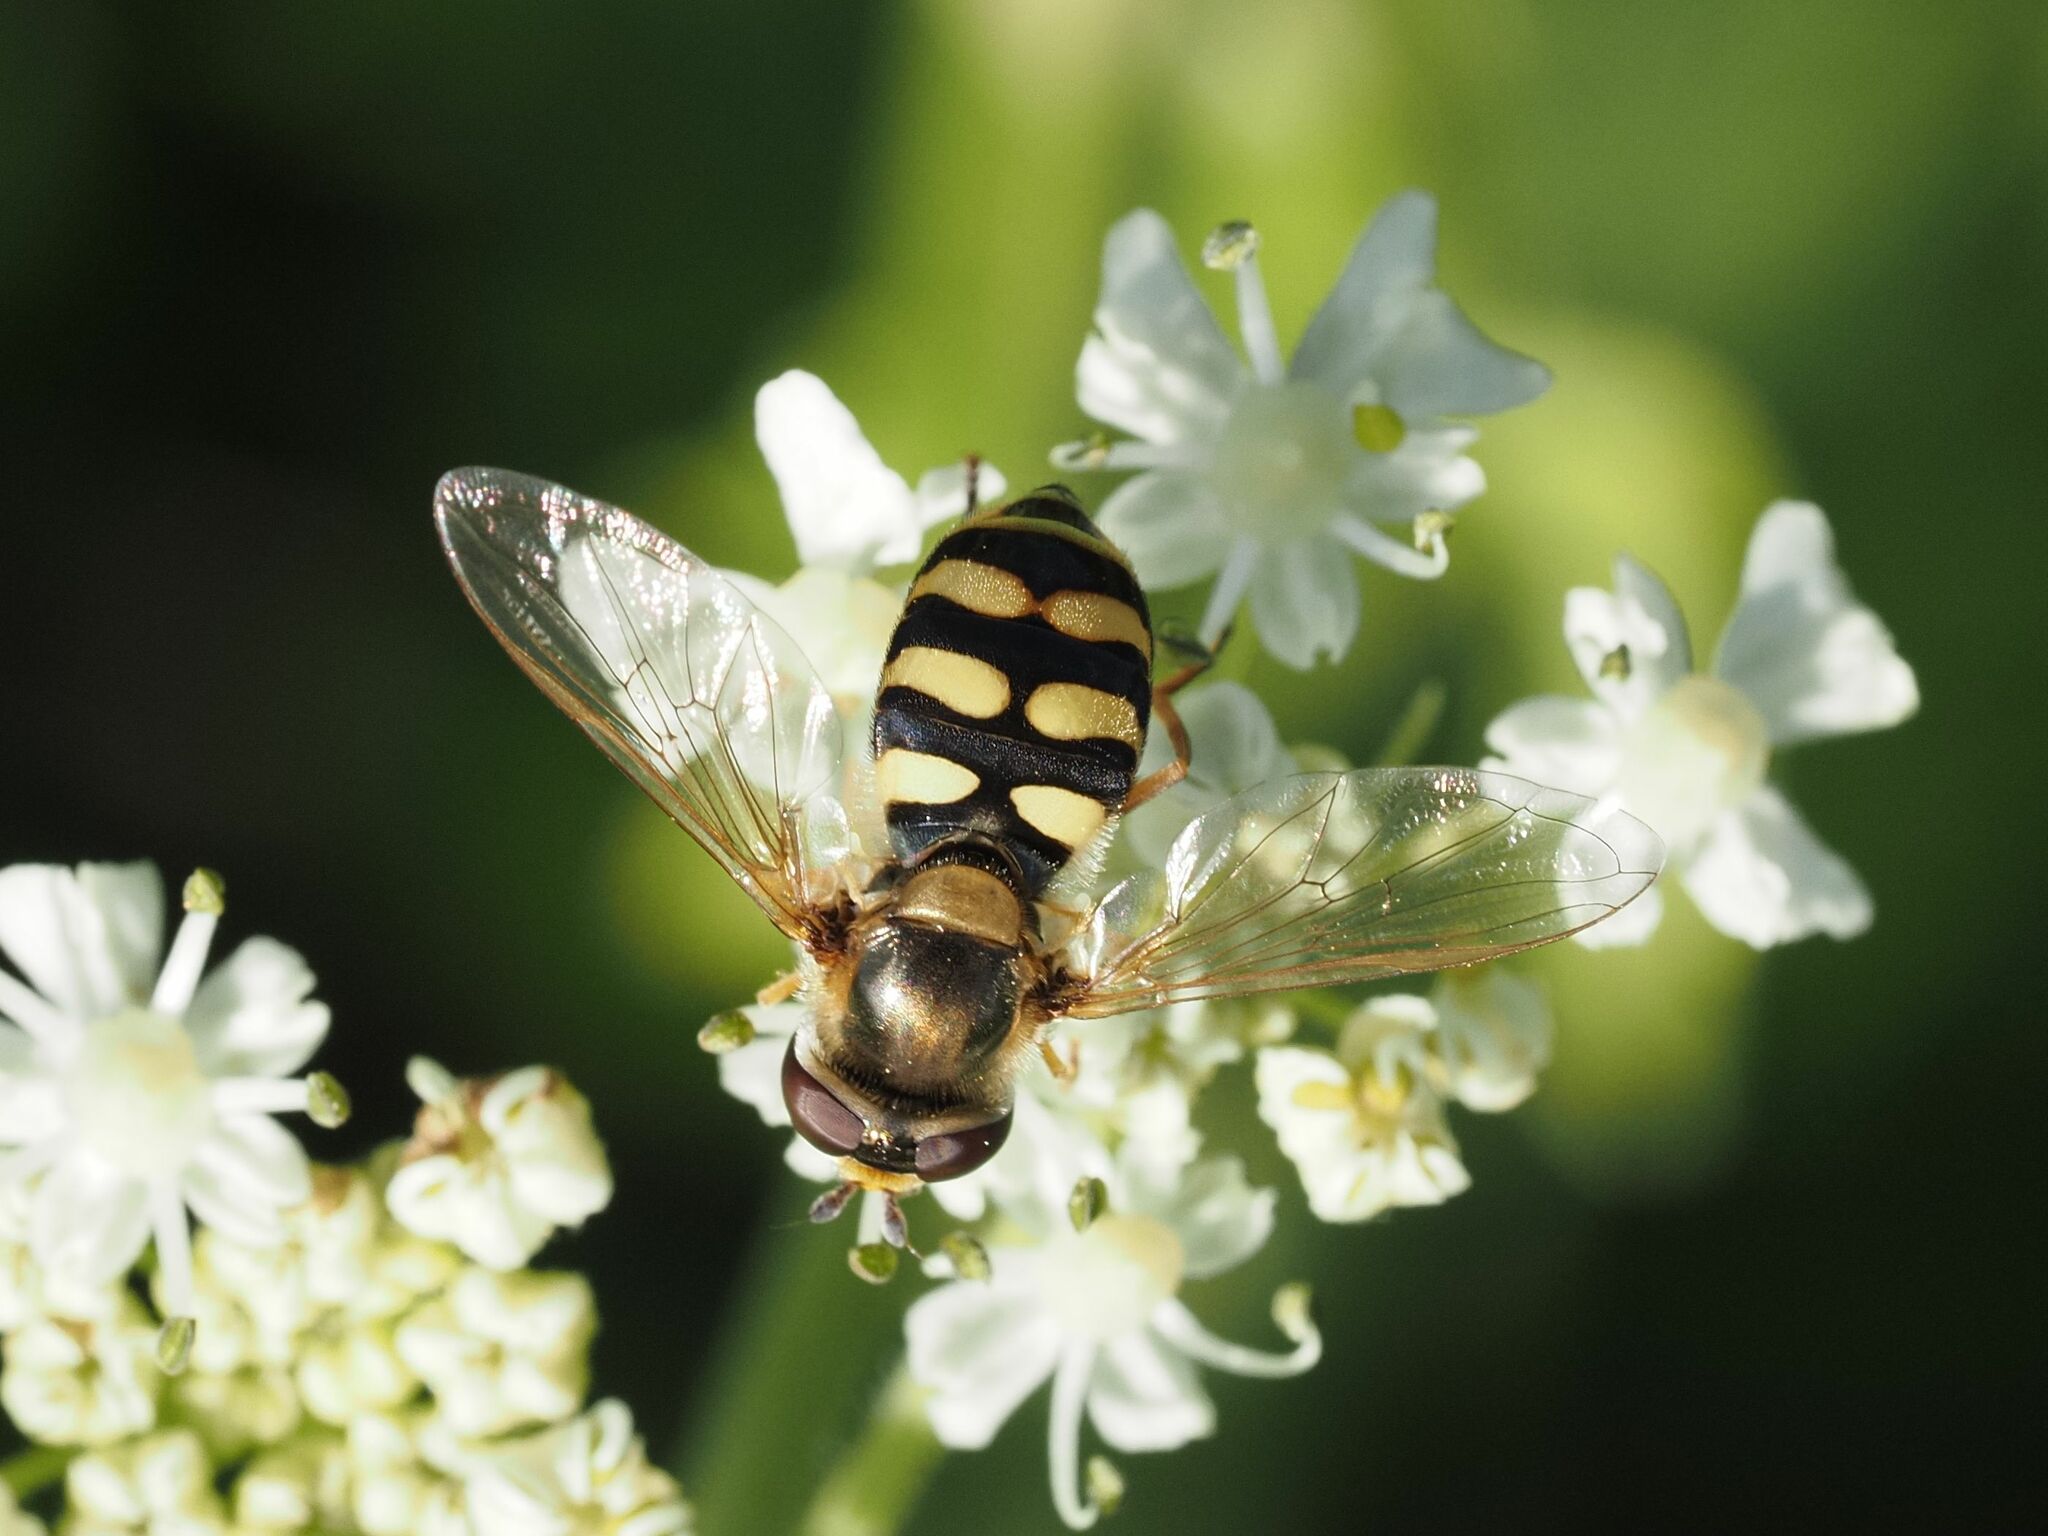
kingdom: Animalia
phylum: Arthropoda
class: Insecta
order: Diptera
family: Syrphidae
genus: Eupeodes
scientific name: Eupeodes corollae
